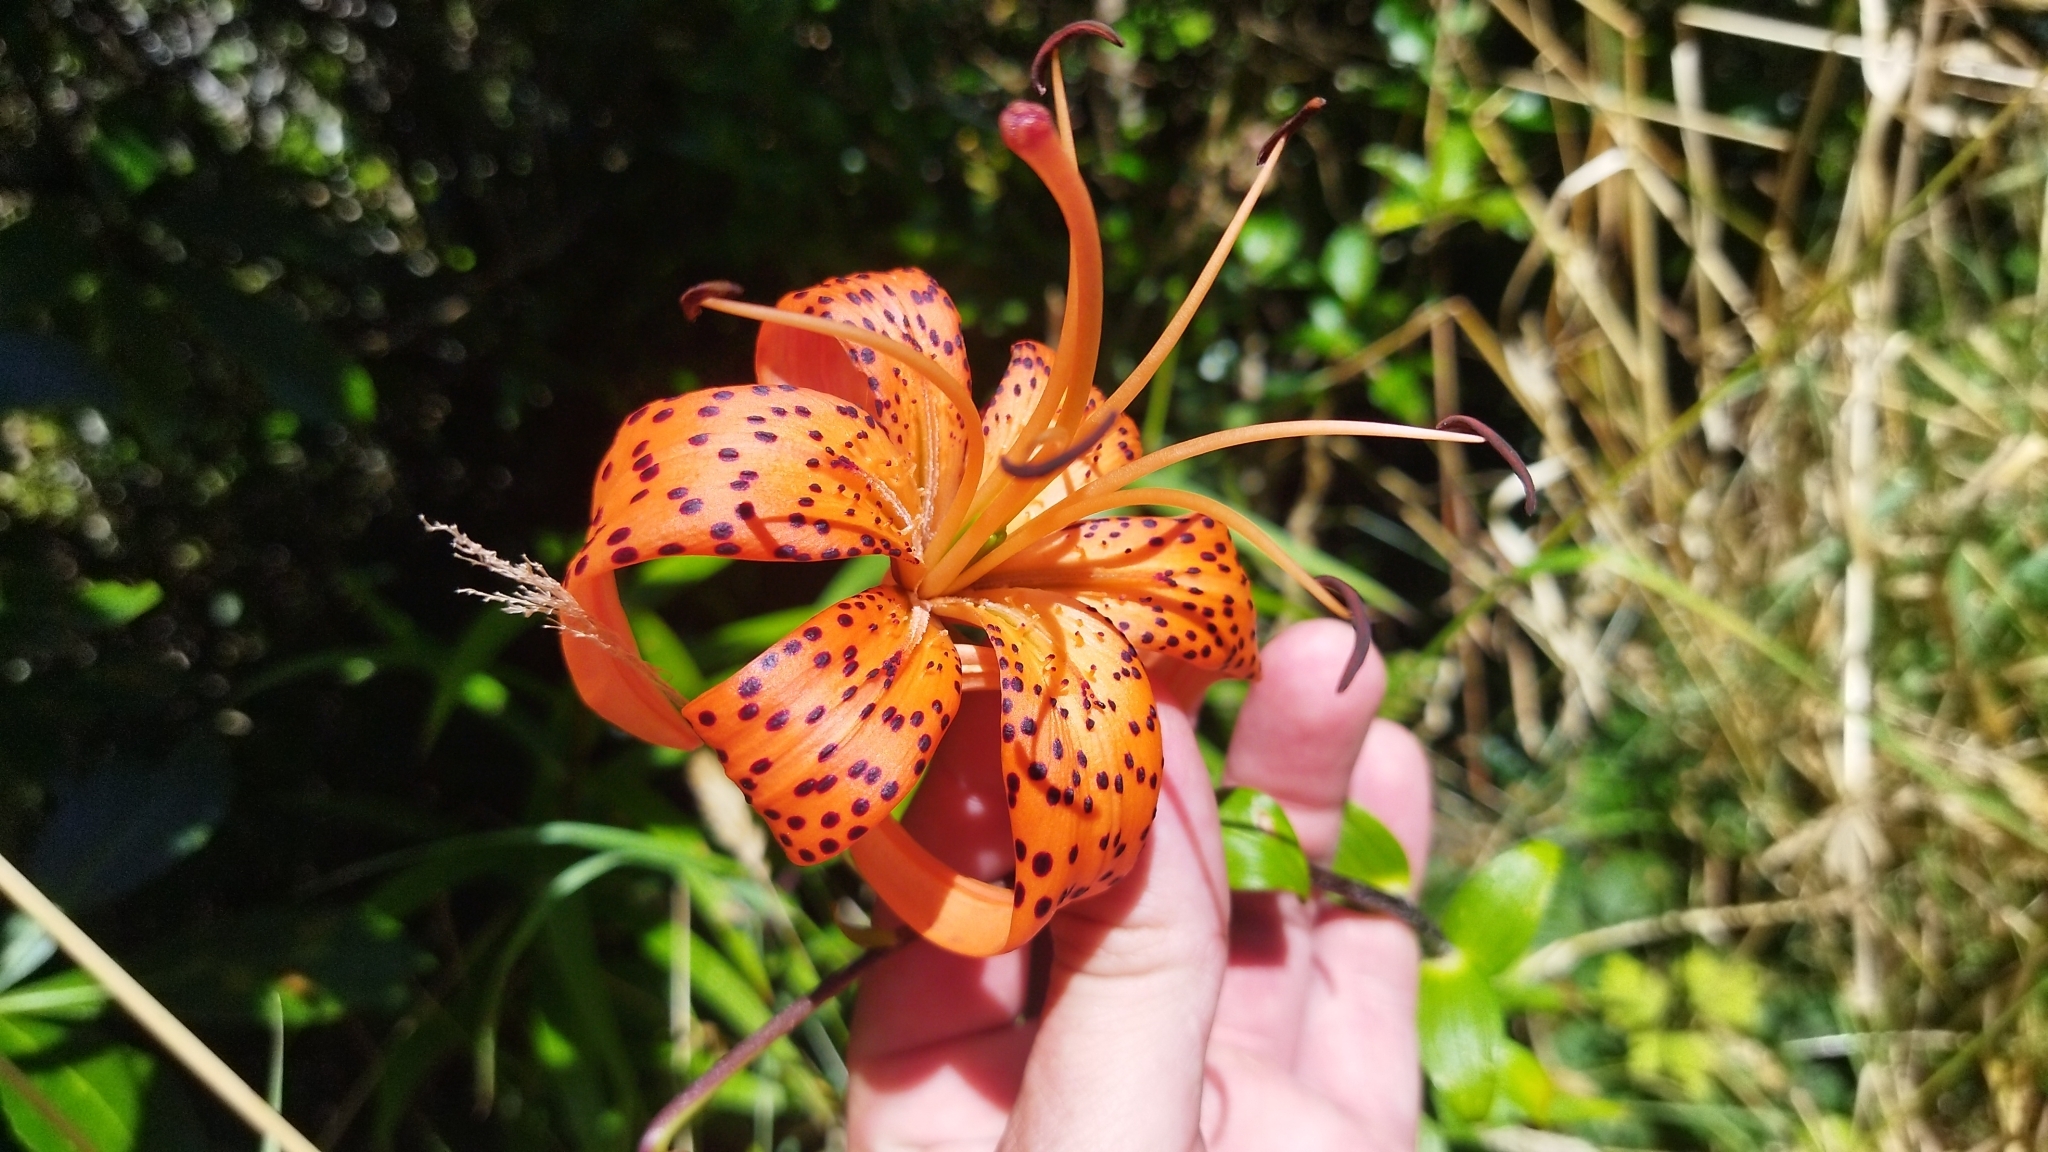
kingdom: Plantae
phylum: Tracheophyta
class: Liliopsida
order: Liliales
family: Liliaceae
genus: Lilium
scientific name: Lilium lancifolium
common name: Tiger lily
